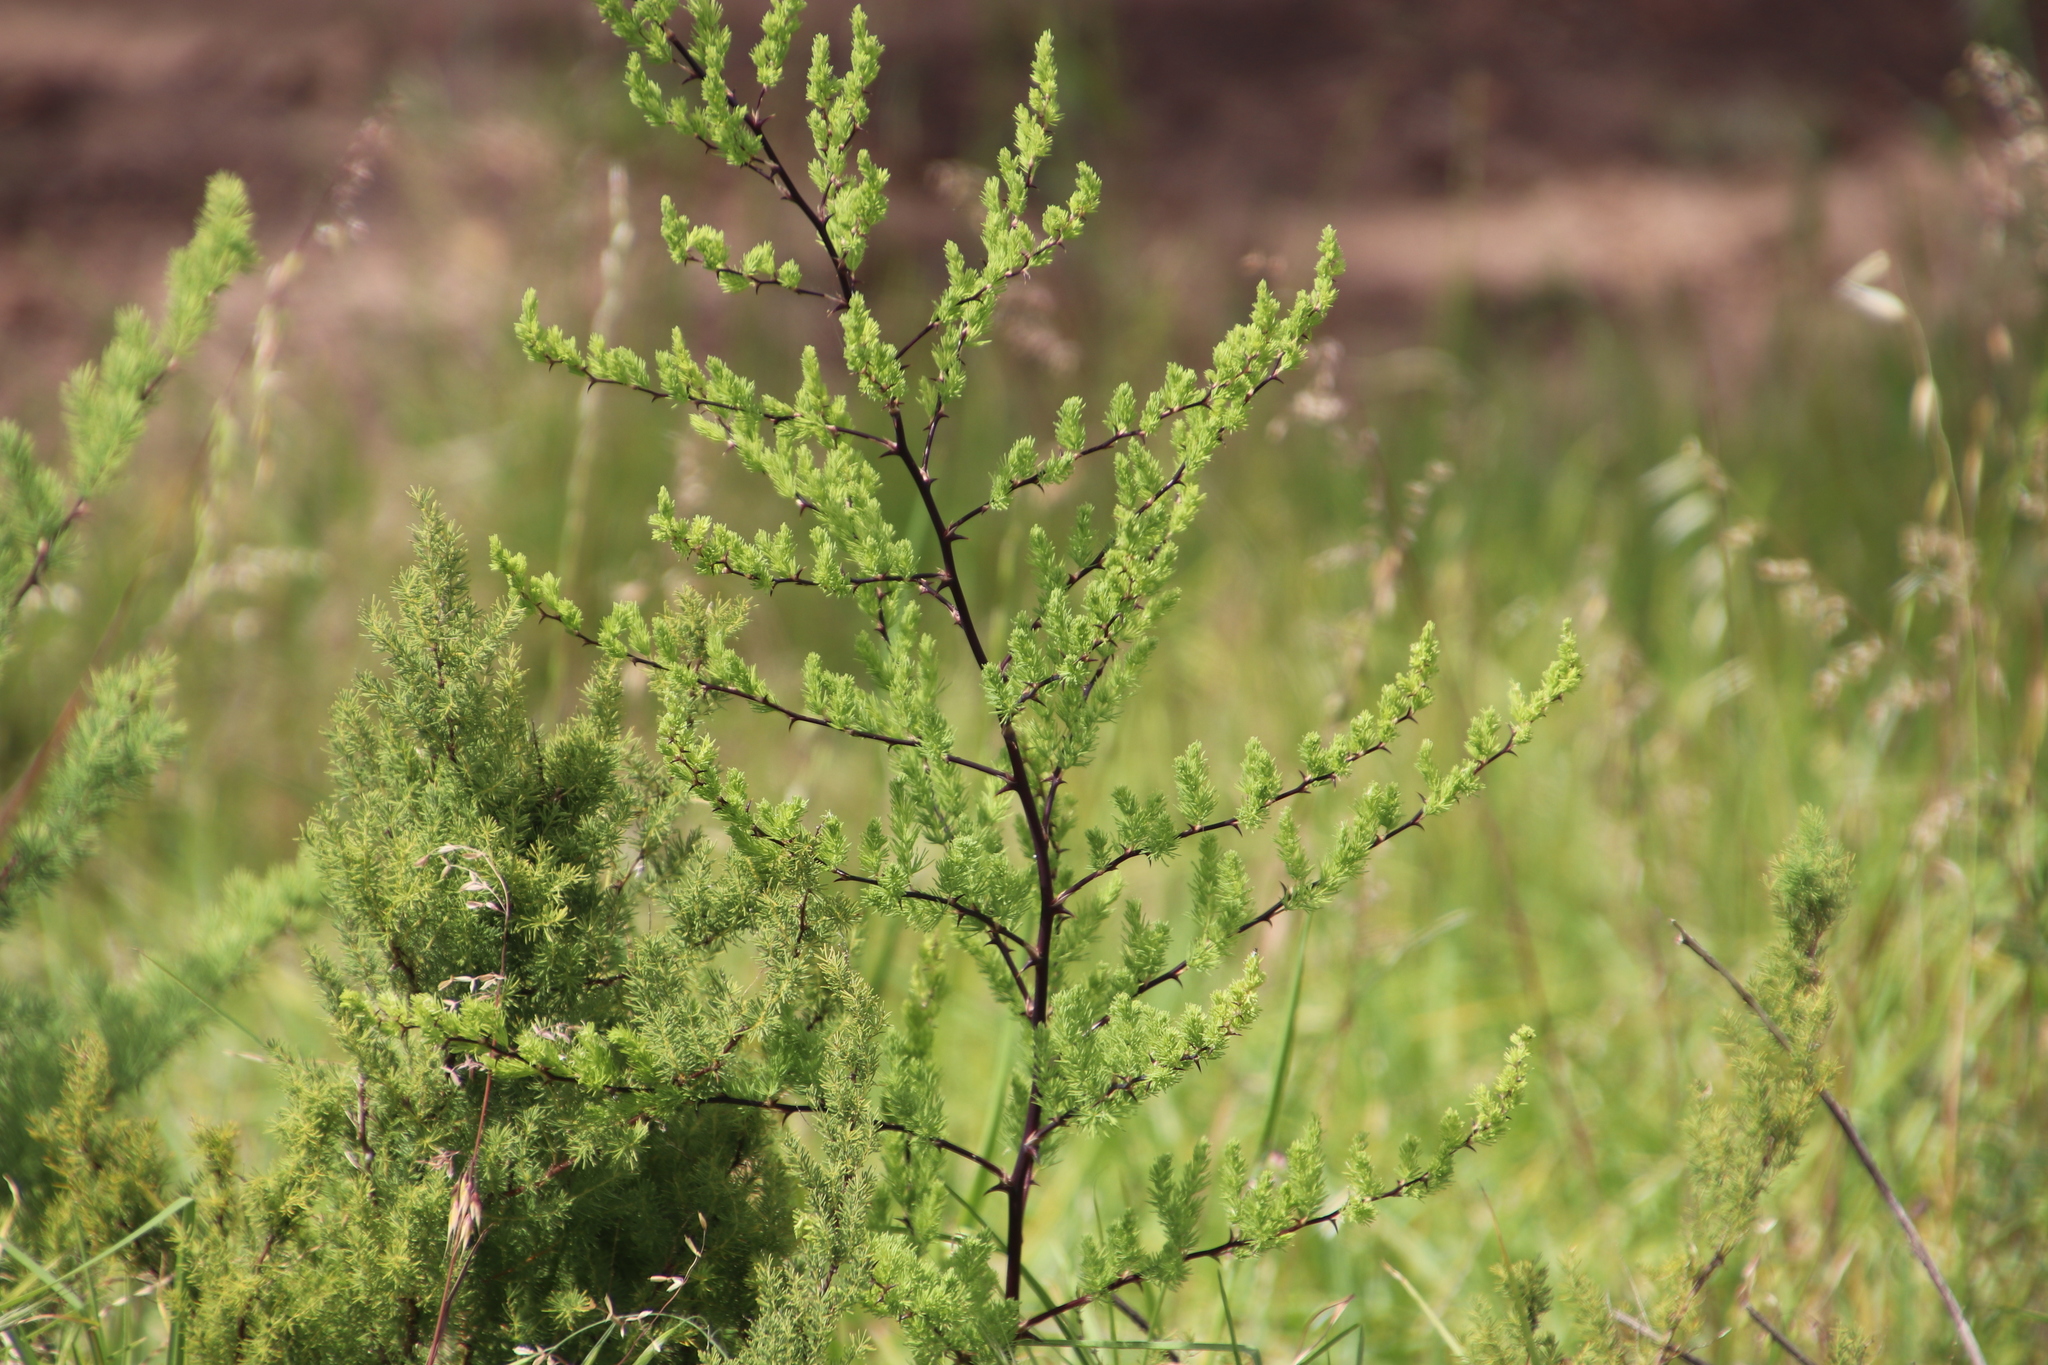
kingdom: Plantae
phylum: Tracheophyta
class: Liliopsida
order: Asparagales
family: Asparagaceae
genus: Asparagus
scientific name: Asparagus rubicundus
